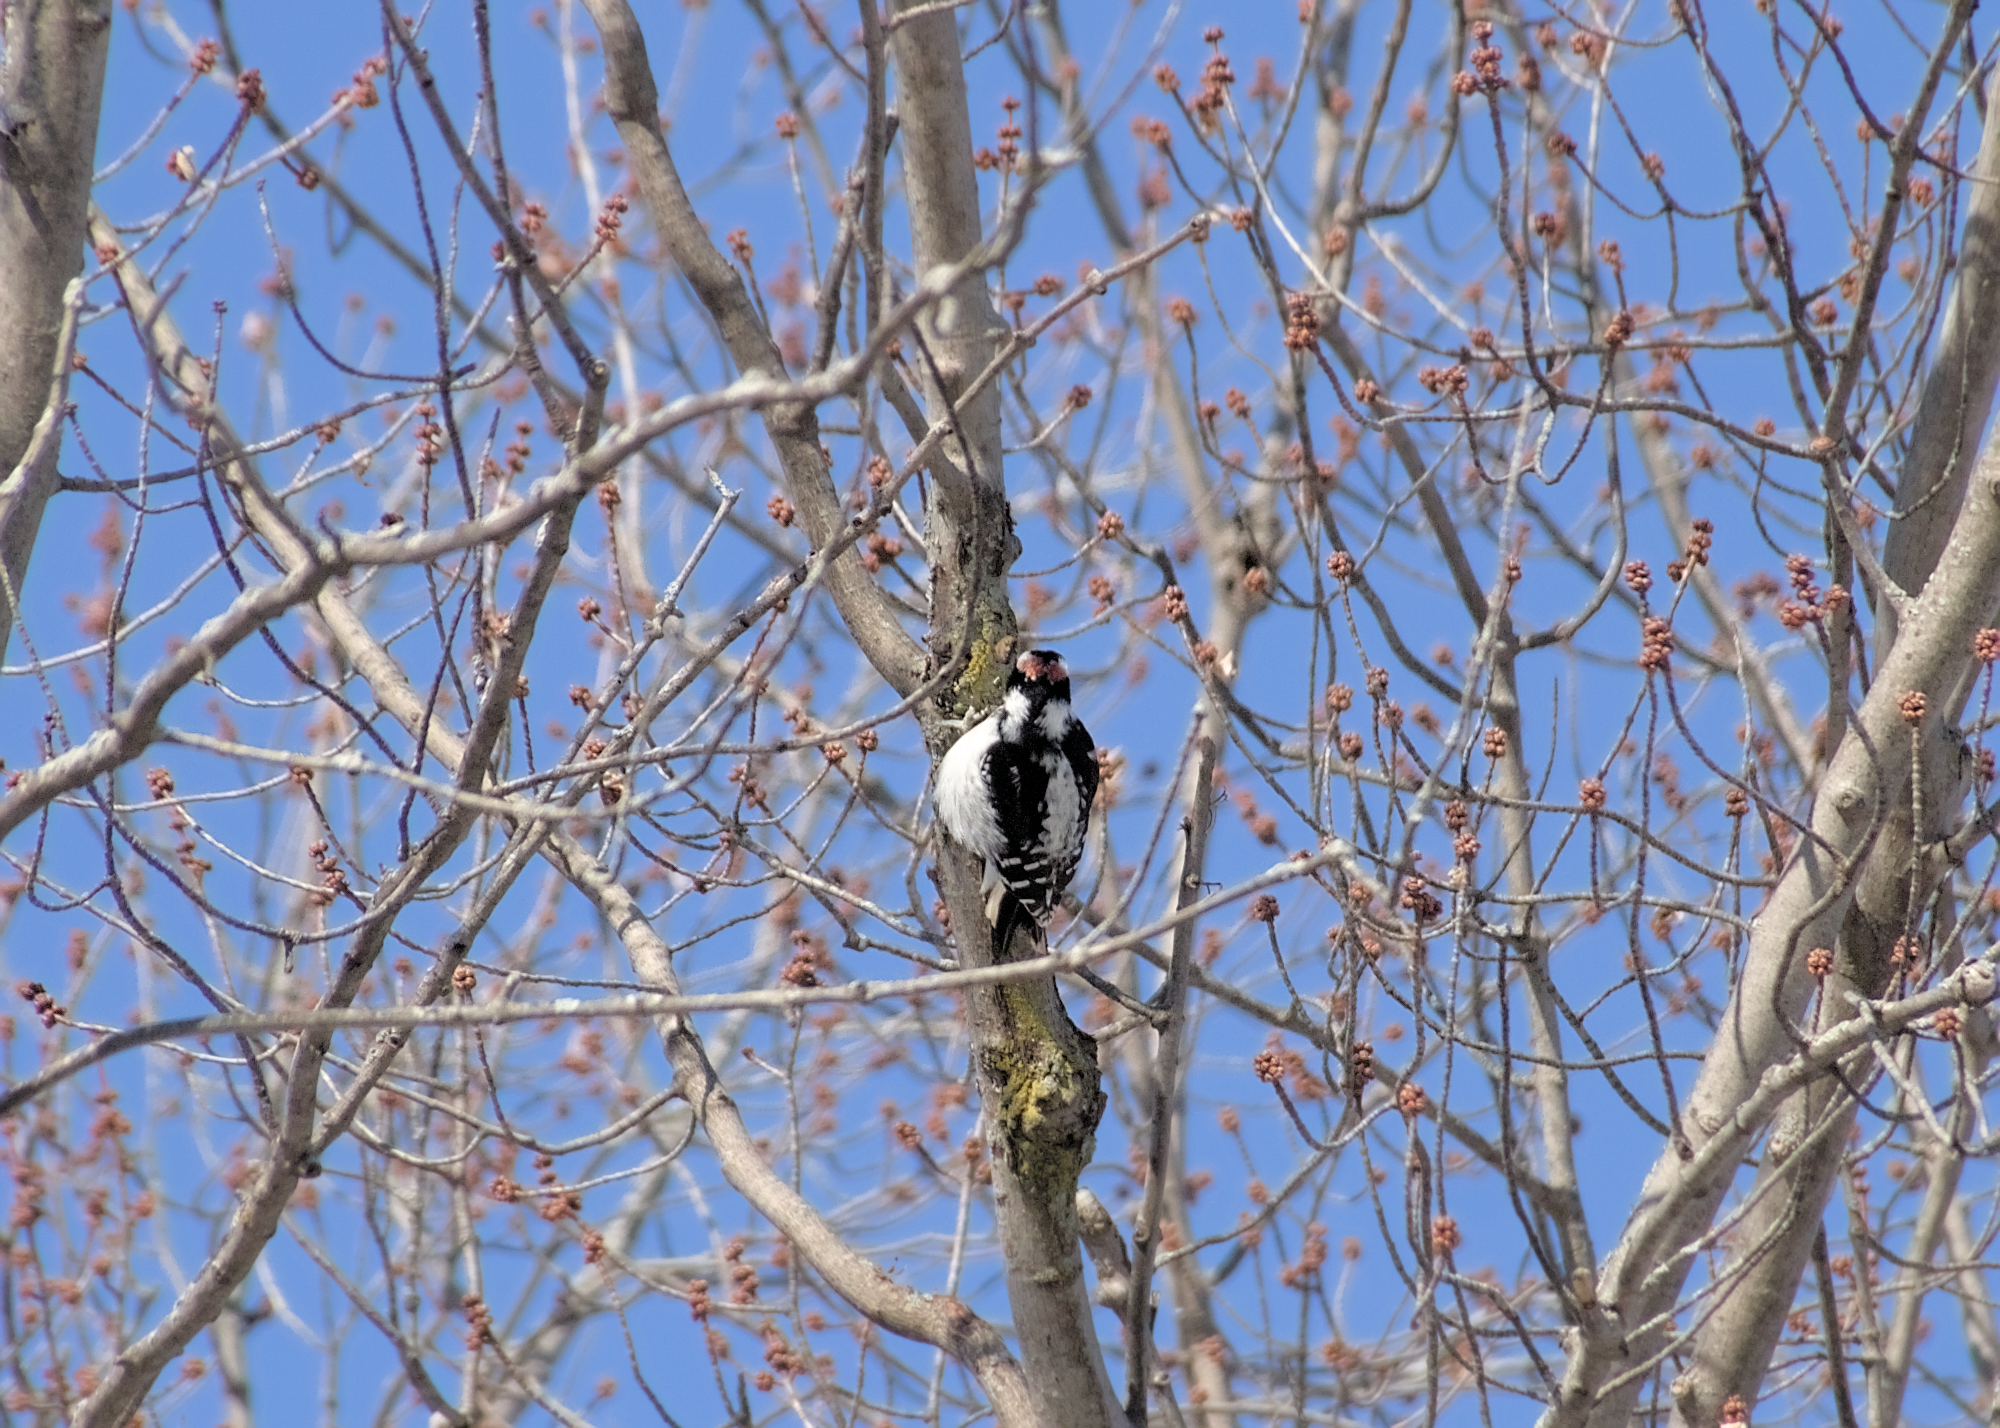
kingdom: Animalia
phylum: Chordata
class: Aves
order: Piciformes
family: Picidae
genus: Leuconotopicus
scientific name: Leuconotopicus villosus
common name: Hairy woodpecker
